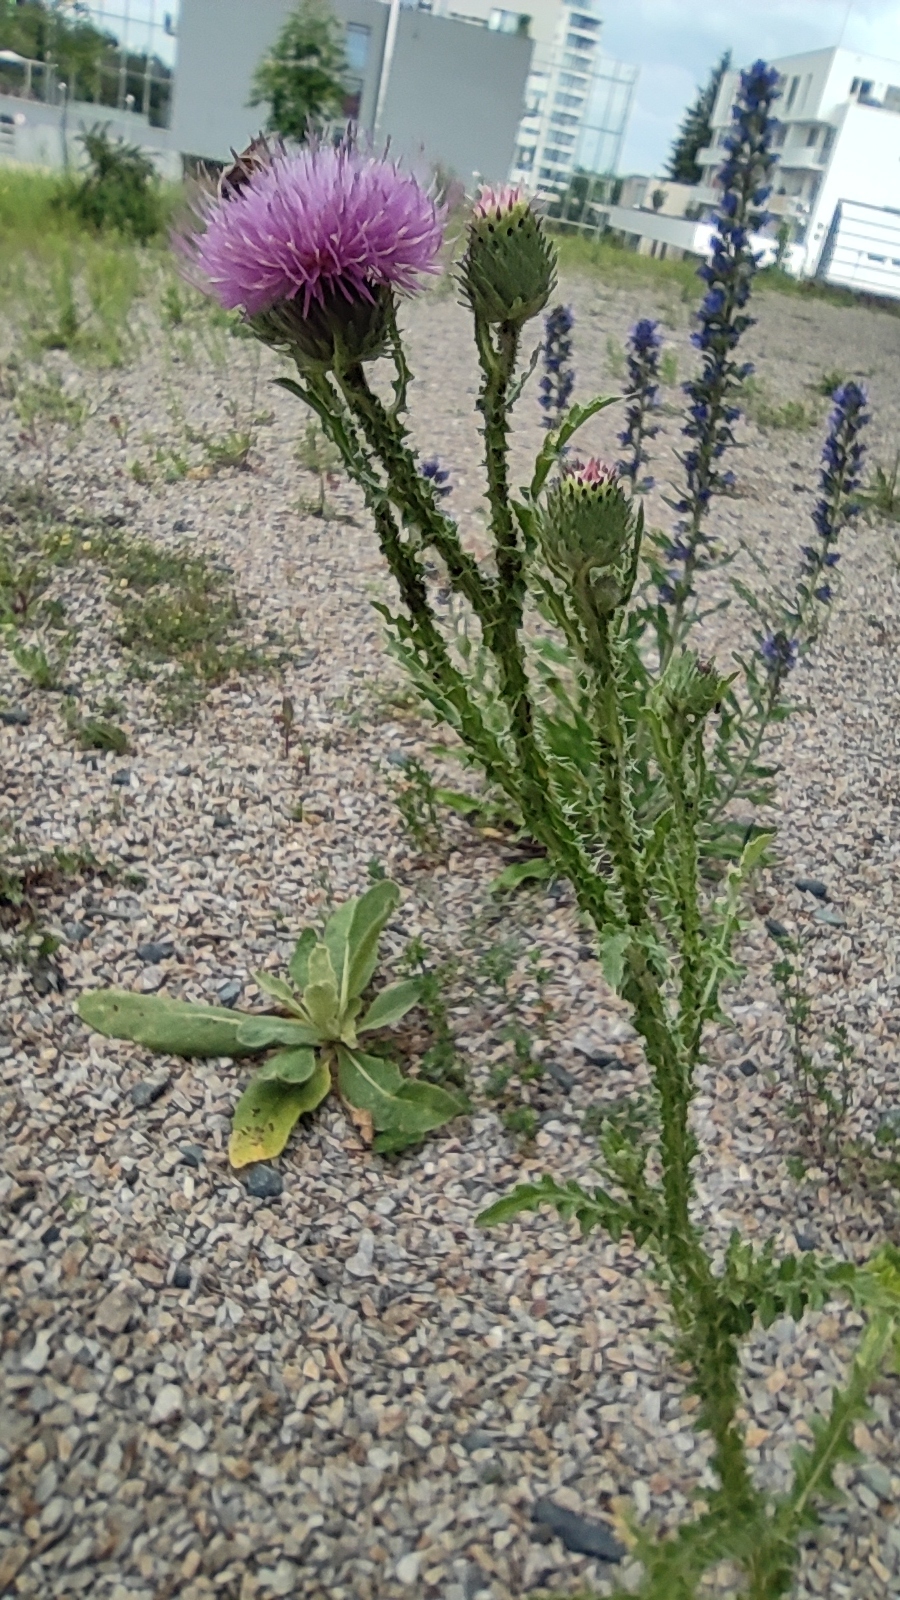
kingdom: Plantae
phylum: Tracheophyta
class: Magnoliopsida
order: Asterales
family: Asteraceae
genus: Carduus
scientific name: Carduus acanthoides
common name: Plumeless thistle
